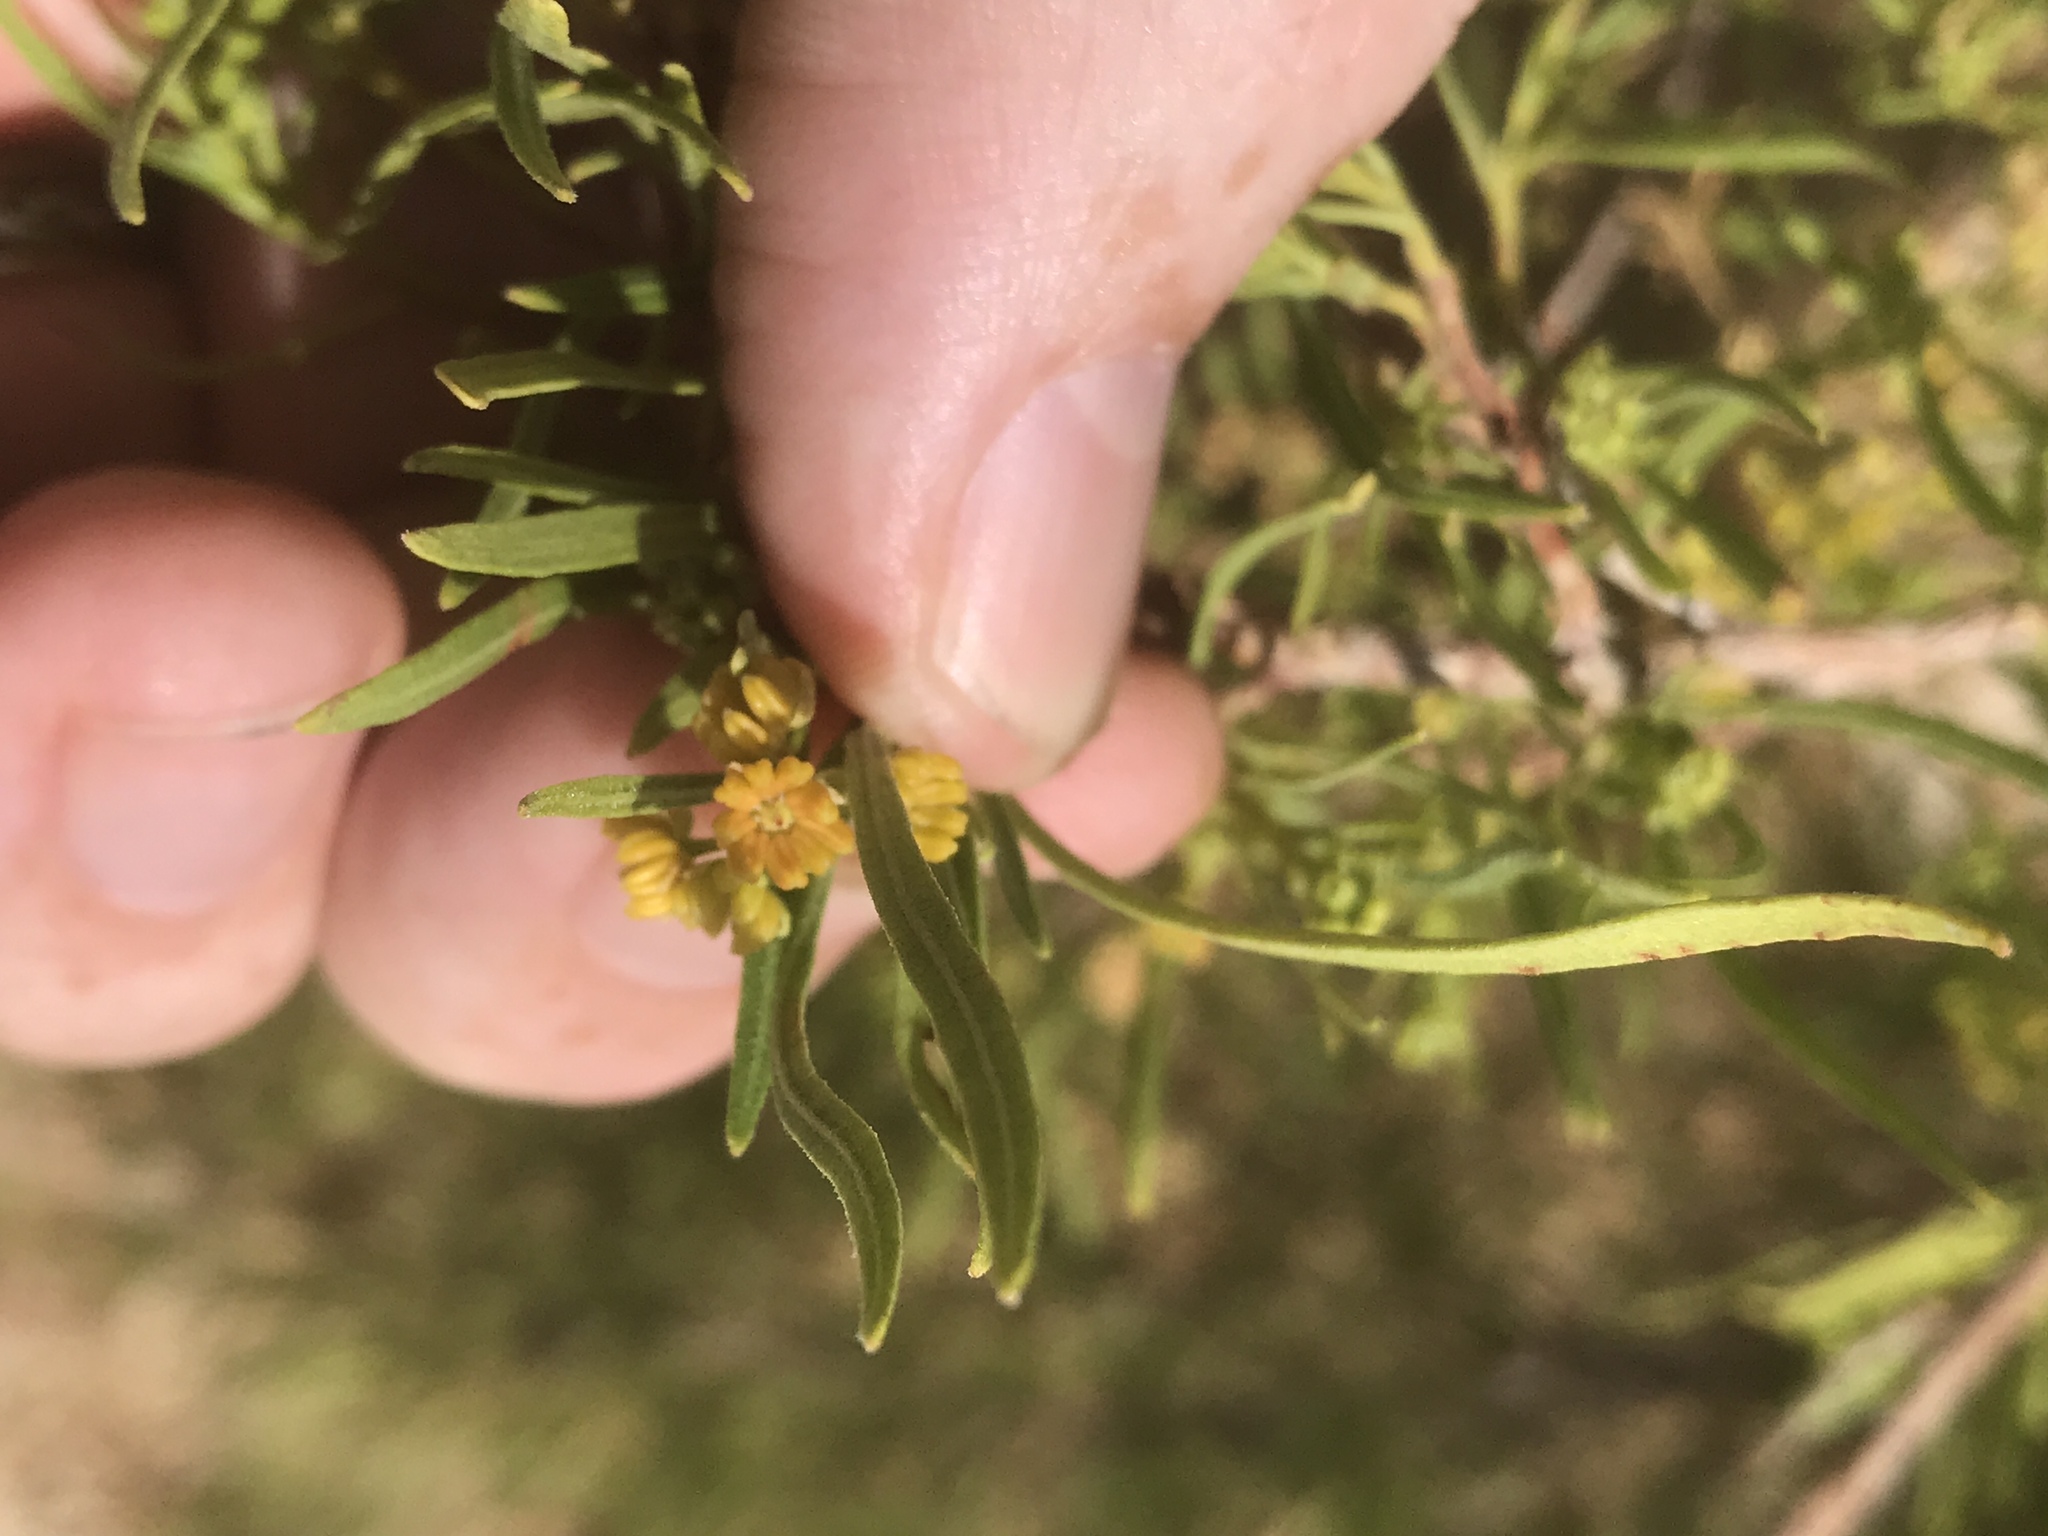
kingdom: Plantae
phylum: Tracheophyta
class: Magnoliopsida
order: Sapindales
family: Sapindaceae
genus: Dodonaea
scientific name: Dodonaea viscosa
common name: Hopbush
